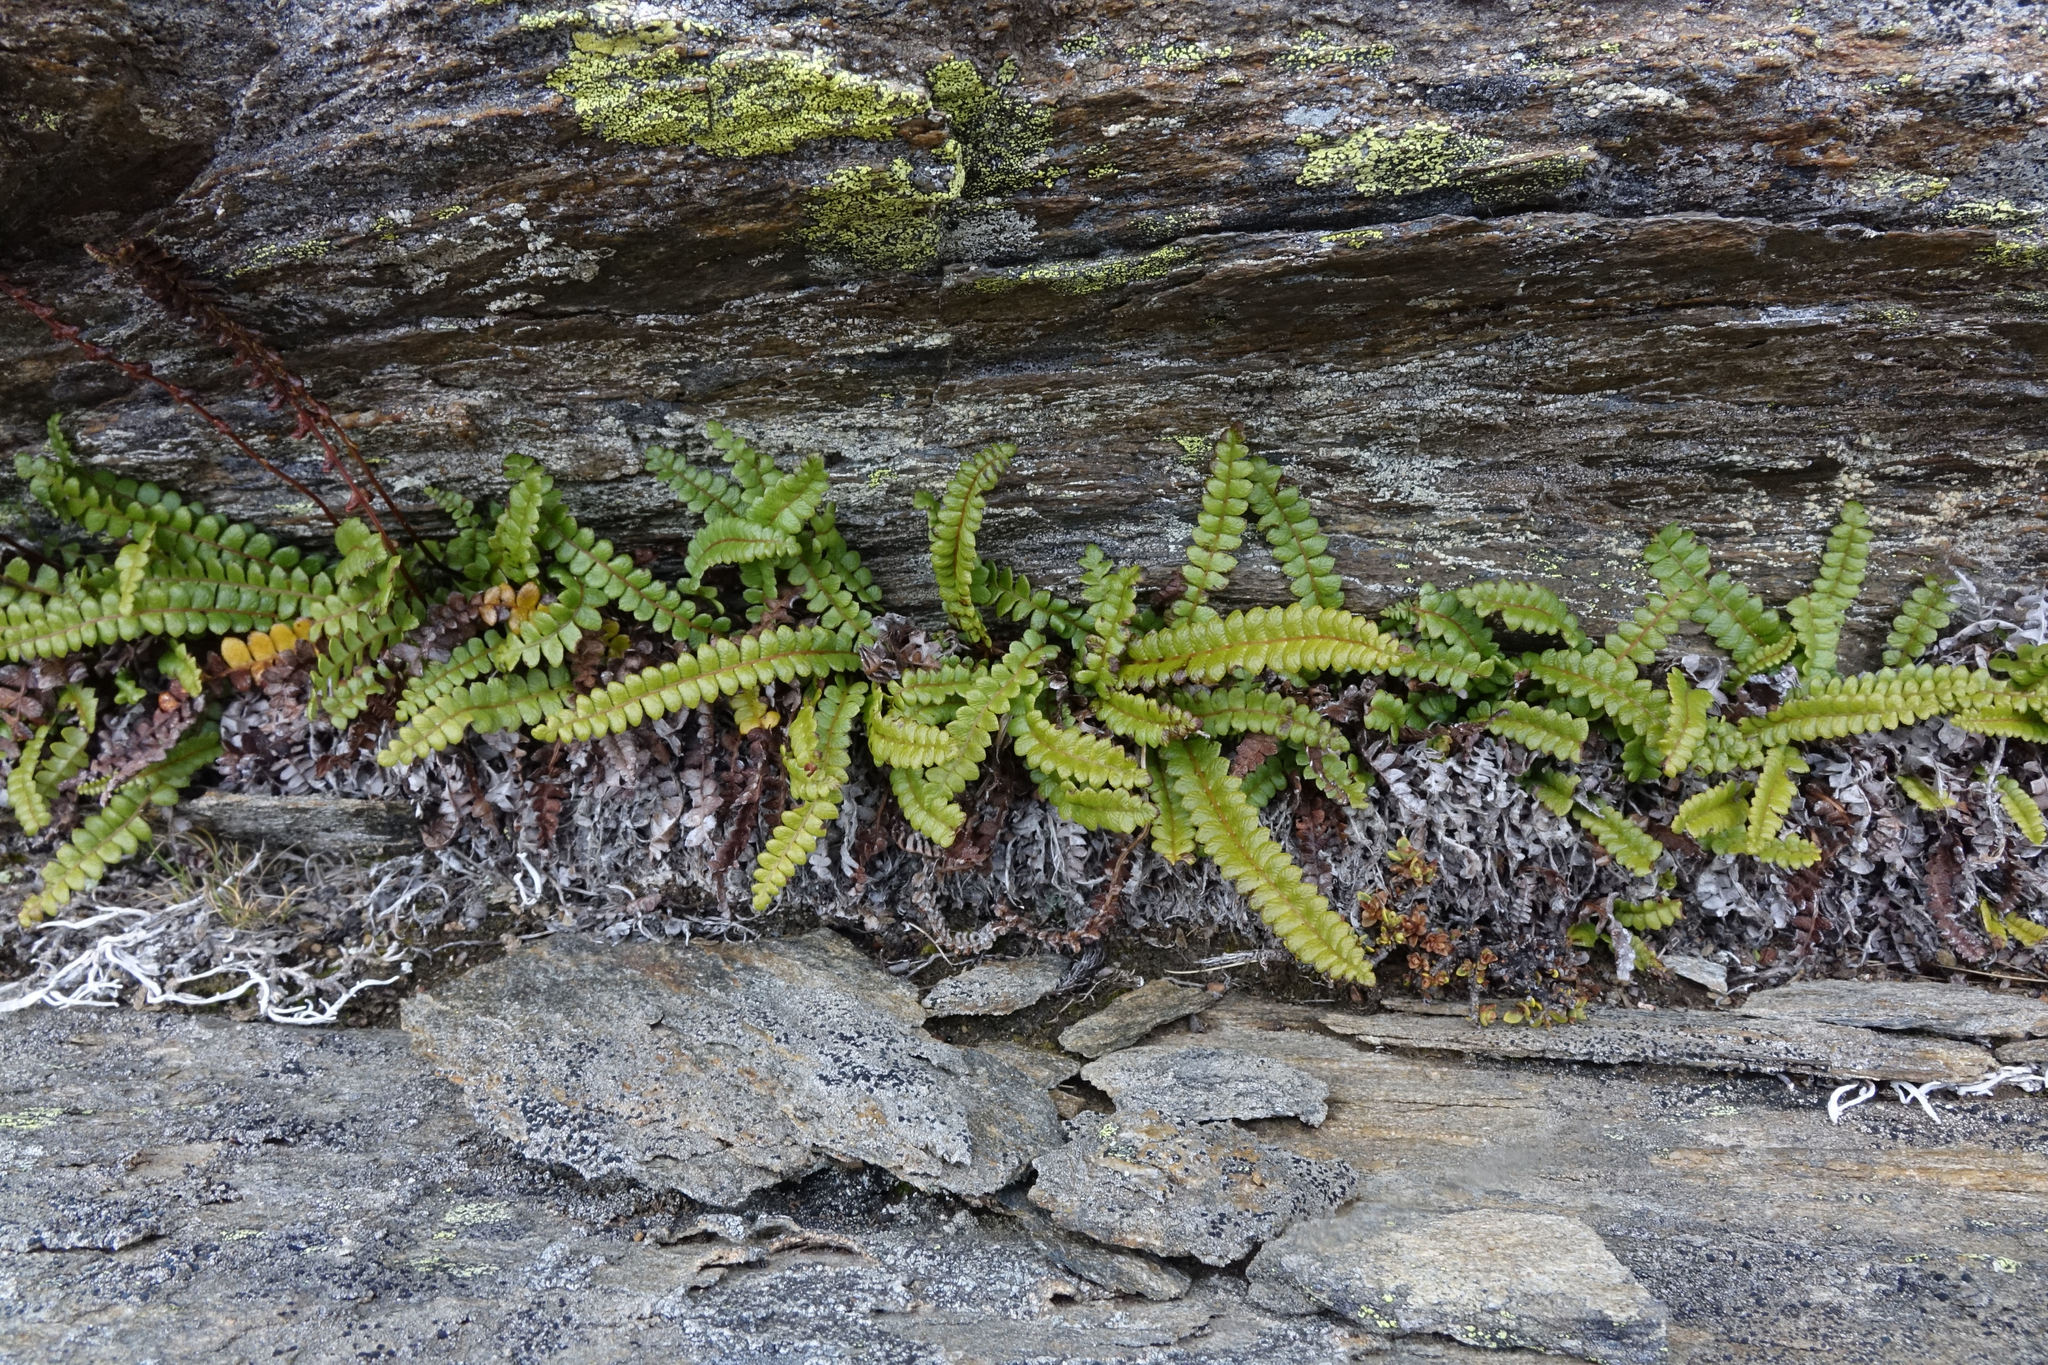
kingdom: Plantae
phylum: Tracheophyta
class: Polypodiopsida
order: Polypodiales
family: Blechnaceae
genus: Austroblechnum
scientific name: Austroblechnum penna-marina
